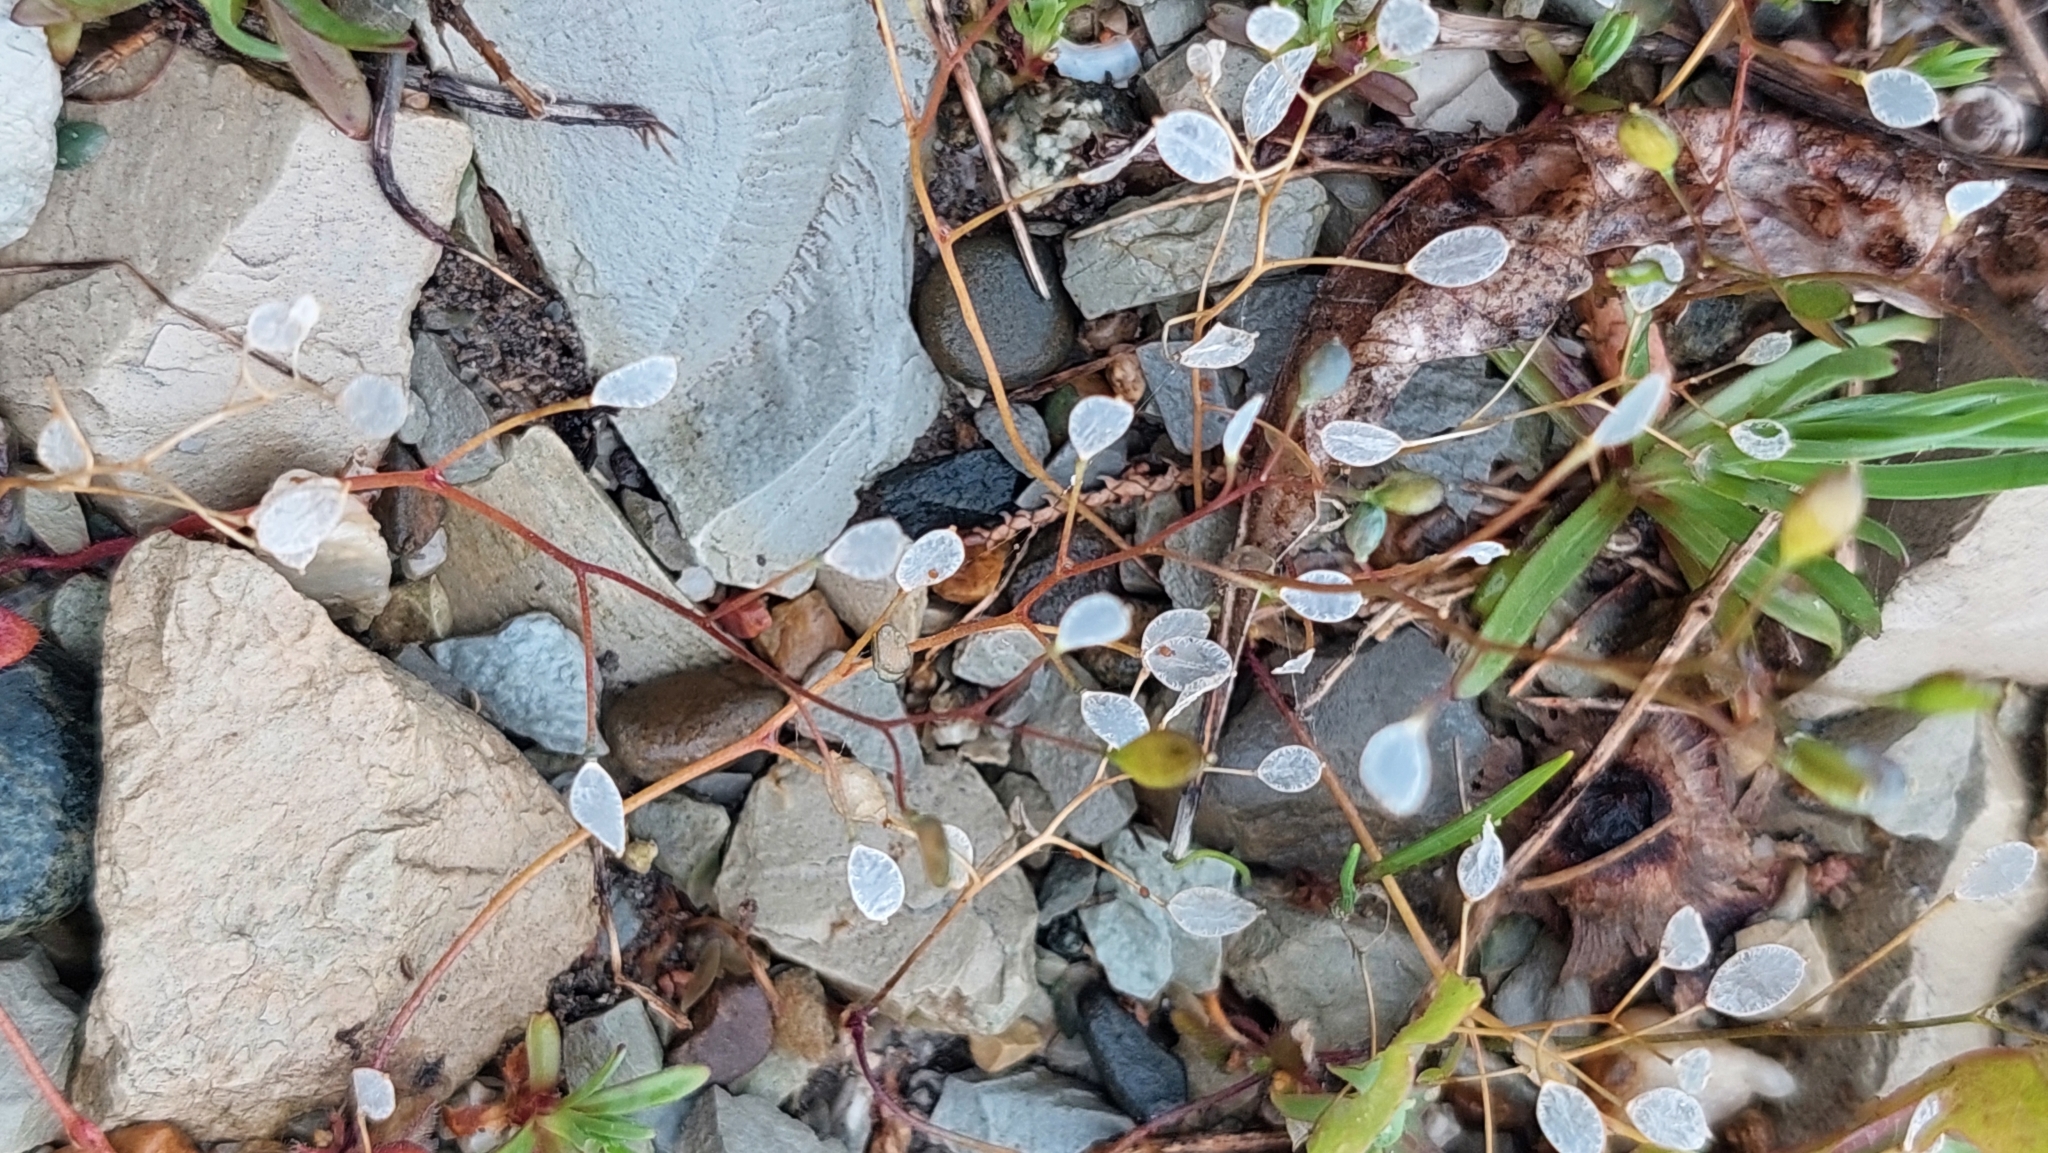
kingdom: Plantae
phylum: Tracheophyta
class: Magnoliopsida
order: Brassicales
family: Brassicaceae
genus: Draba
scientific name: Draba verna
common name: Spring draba
